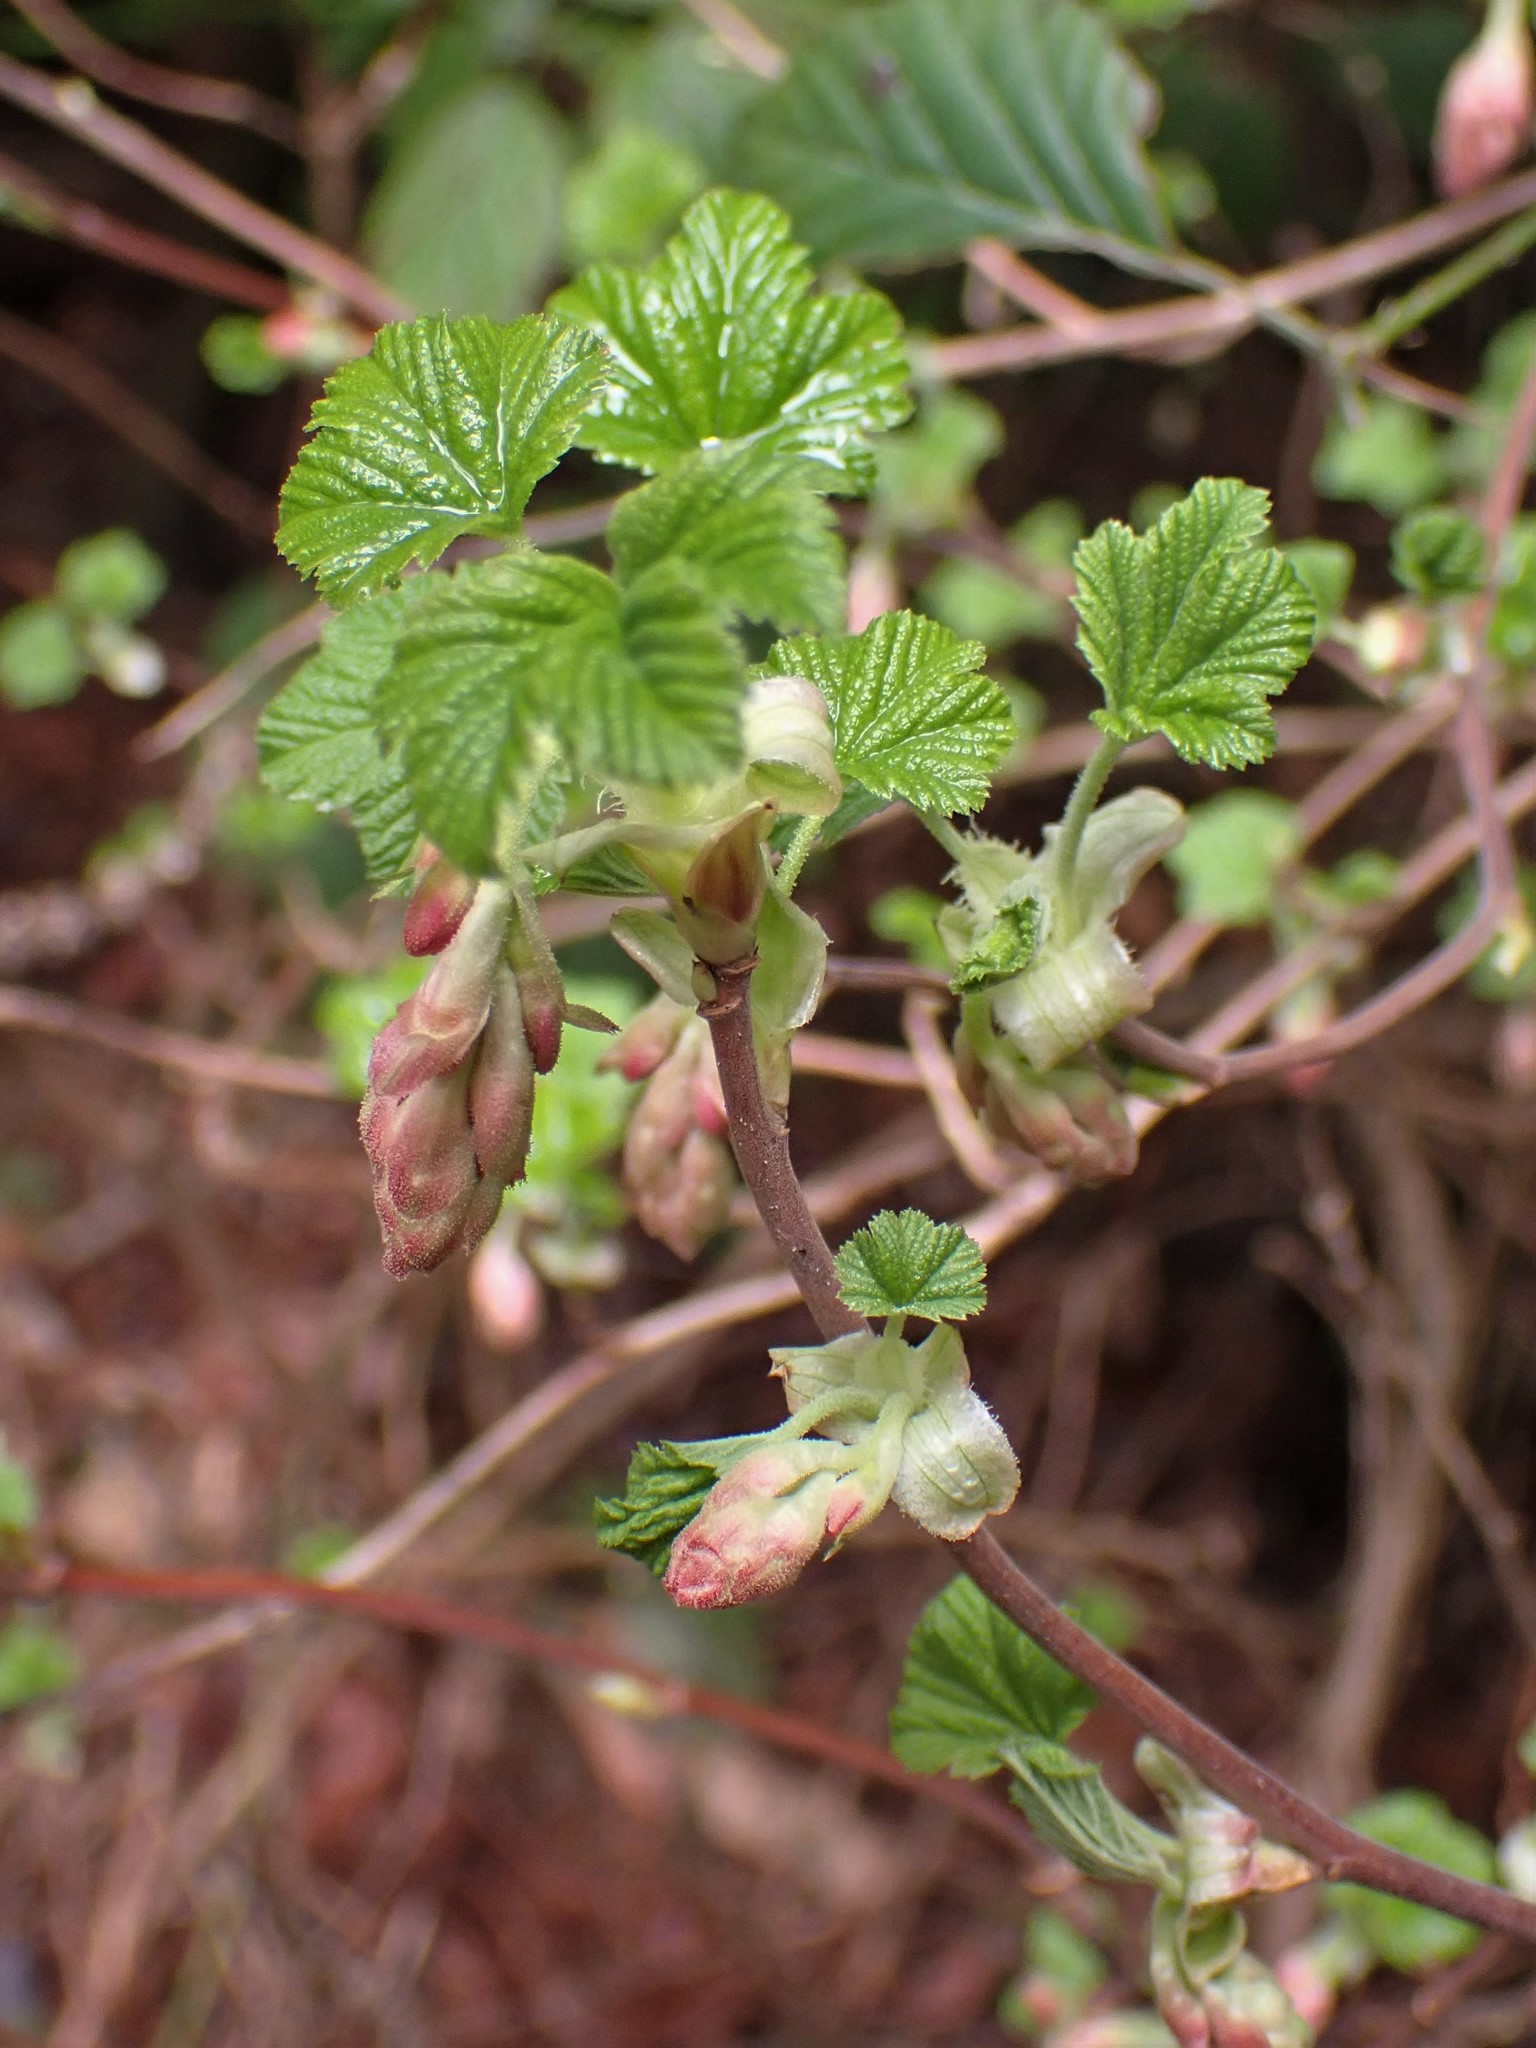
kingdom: Plantae
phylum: Tracheophyta
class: Magnoliopsida
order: Saxifragales
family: Grossulariaceae
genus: Ribes
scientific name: Ribes sanguineum
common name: Flowering currant
